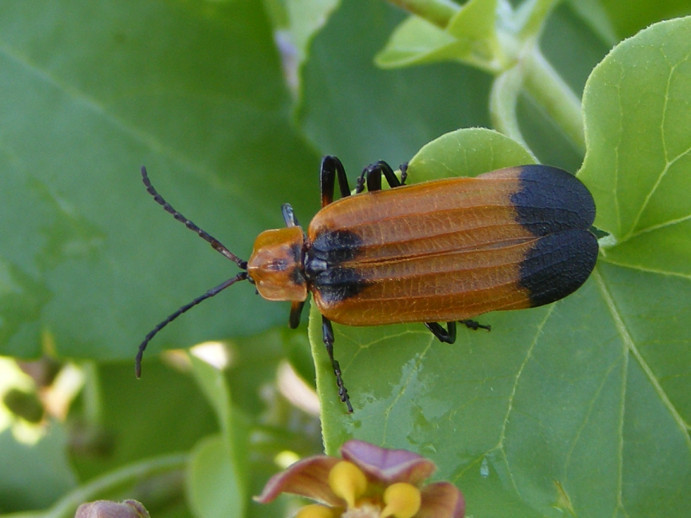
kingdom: Animalia
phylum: Arthropoda
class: Insecta
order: Coleoptera
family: Lycidae
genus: Lycus
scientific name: Lycus
